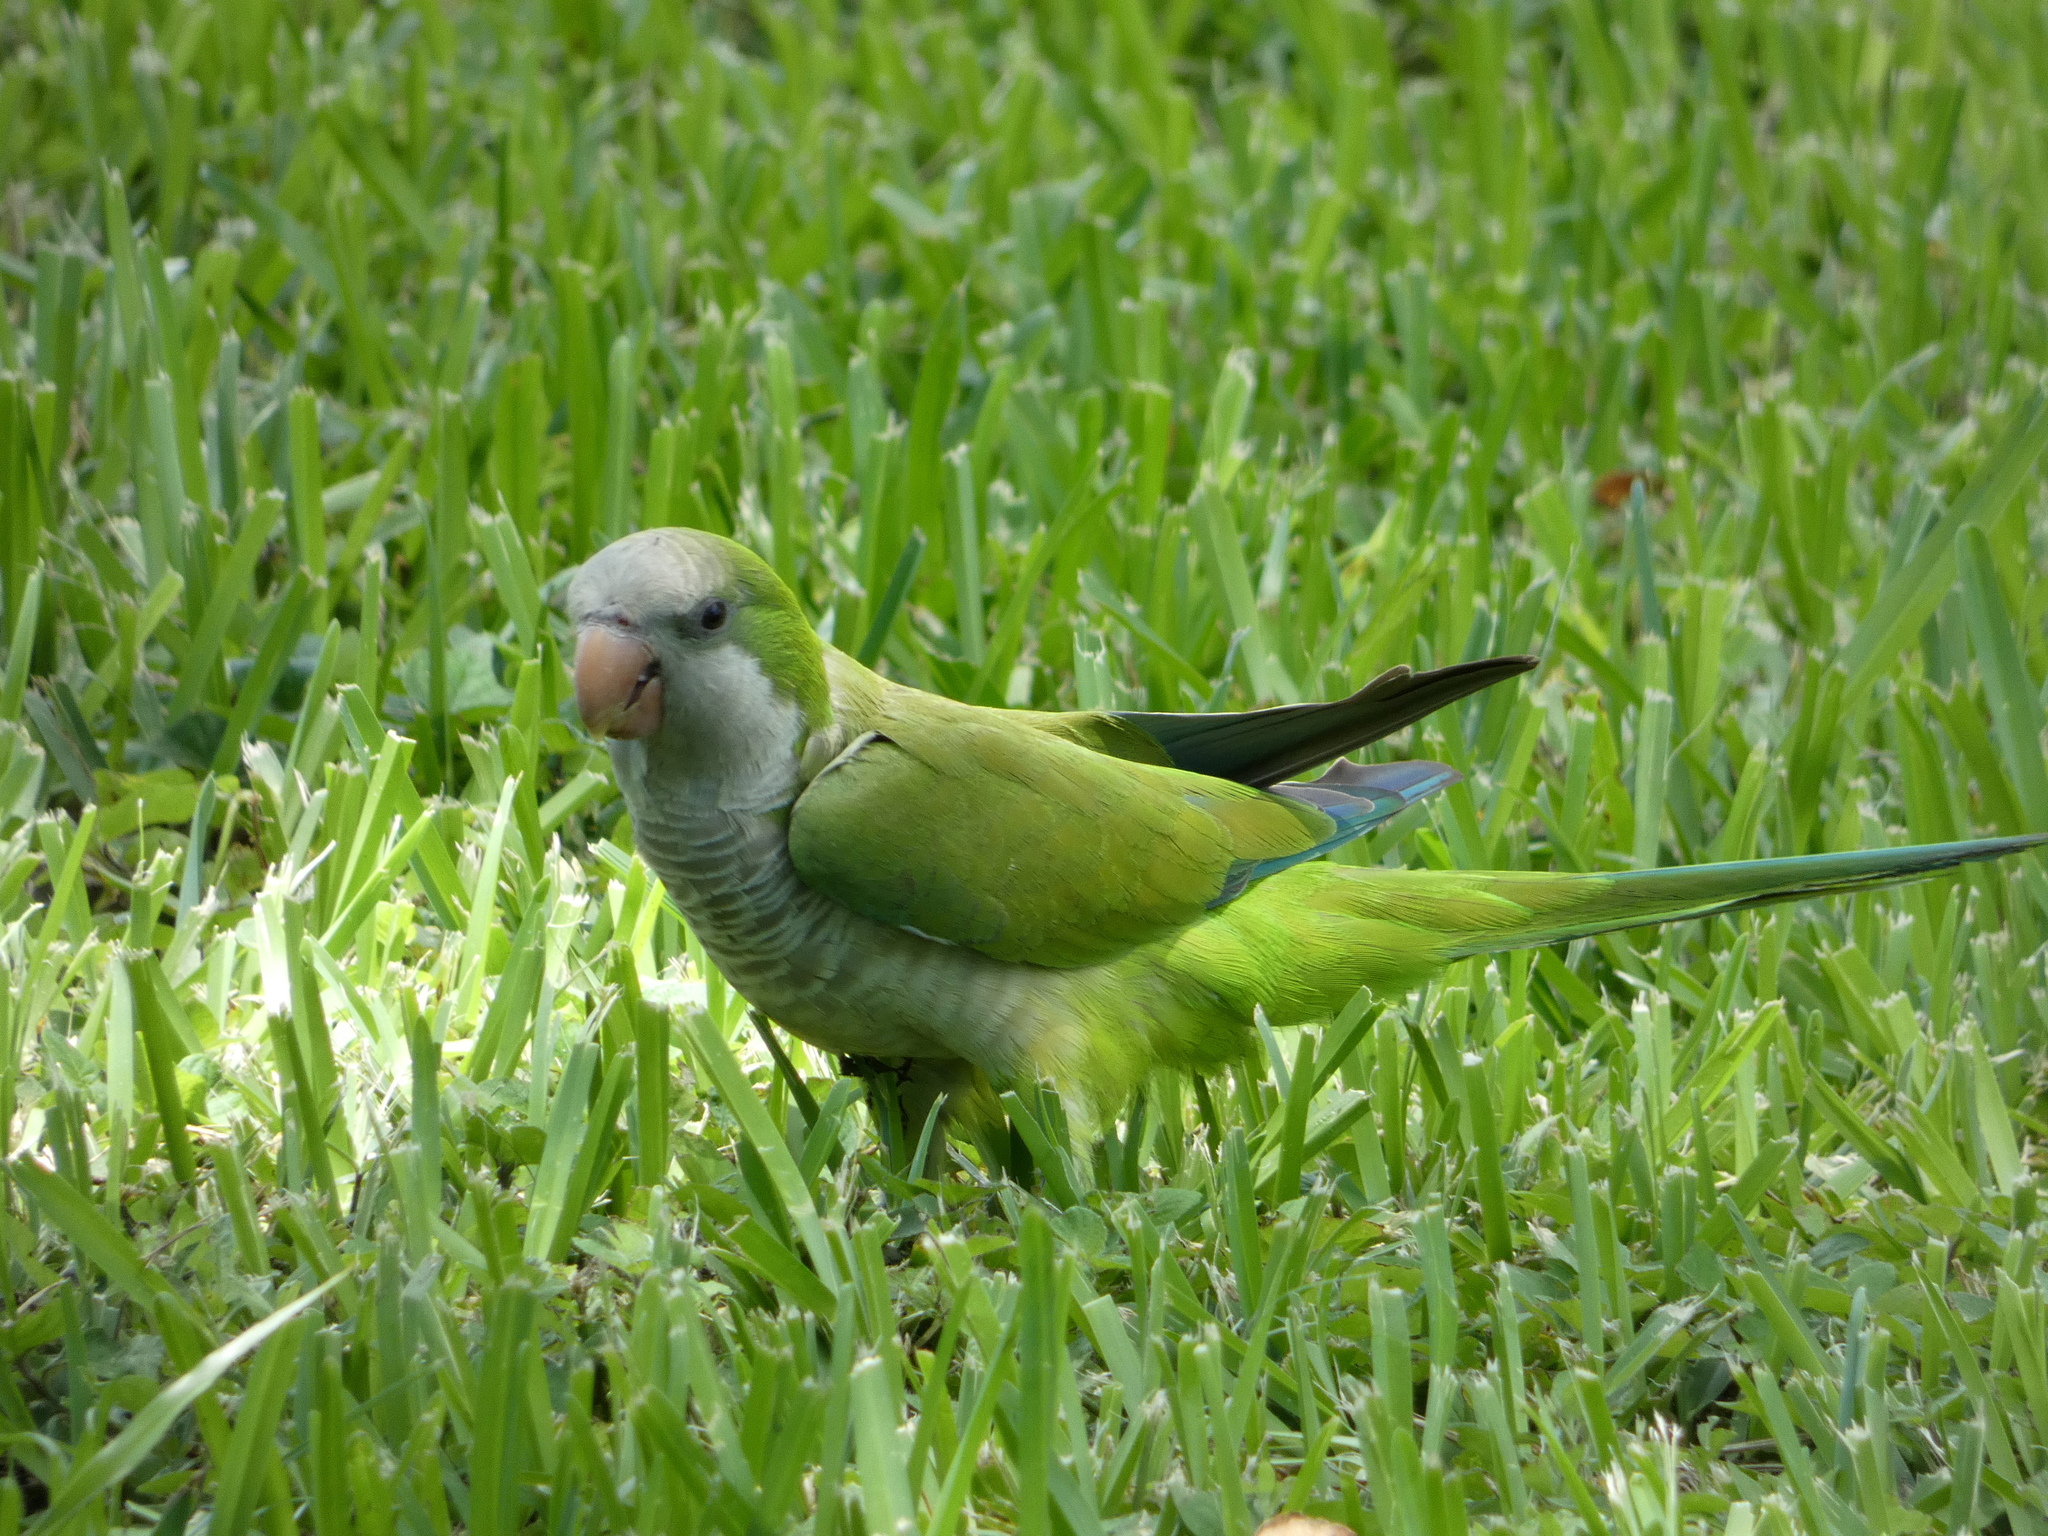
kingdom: Animalia
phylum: Chordata
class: Aves
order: Psittaciformes
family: Psittacidae
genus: Myiopsitta
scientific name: Myiopsitta monachus
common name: Monk parakeet
